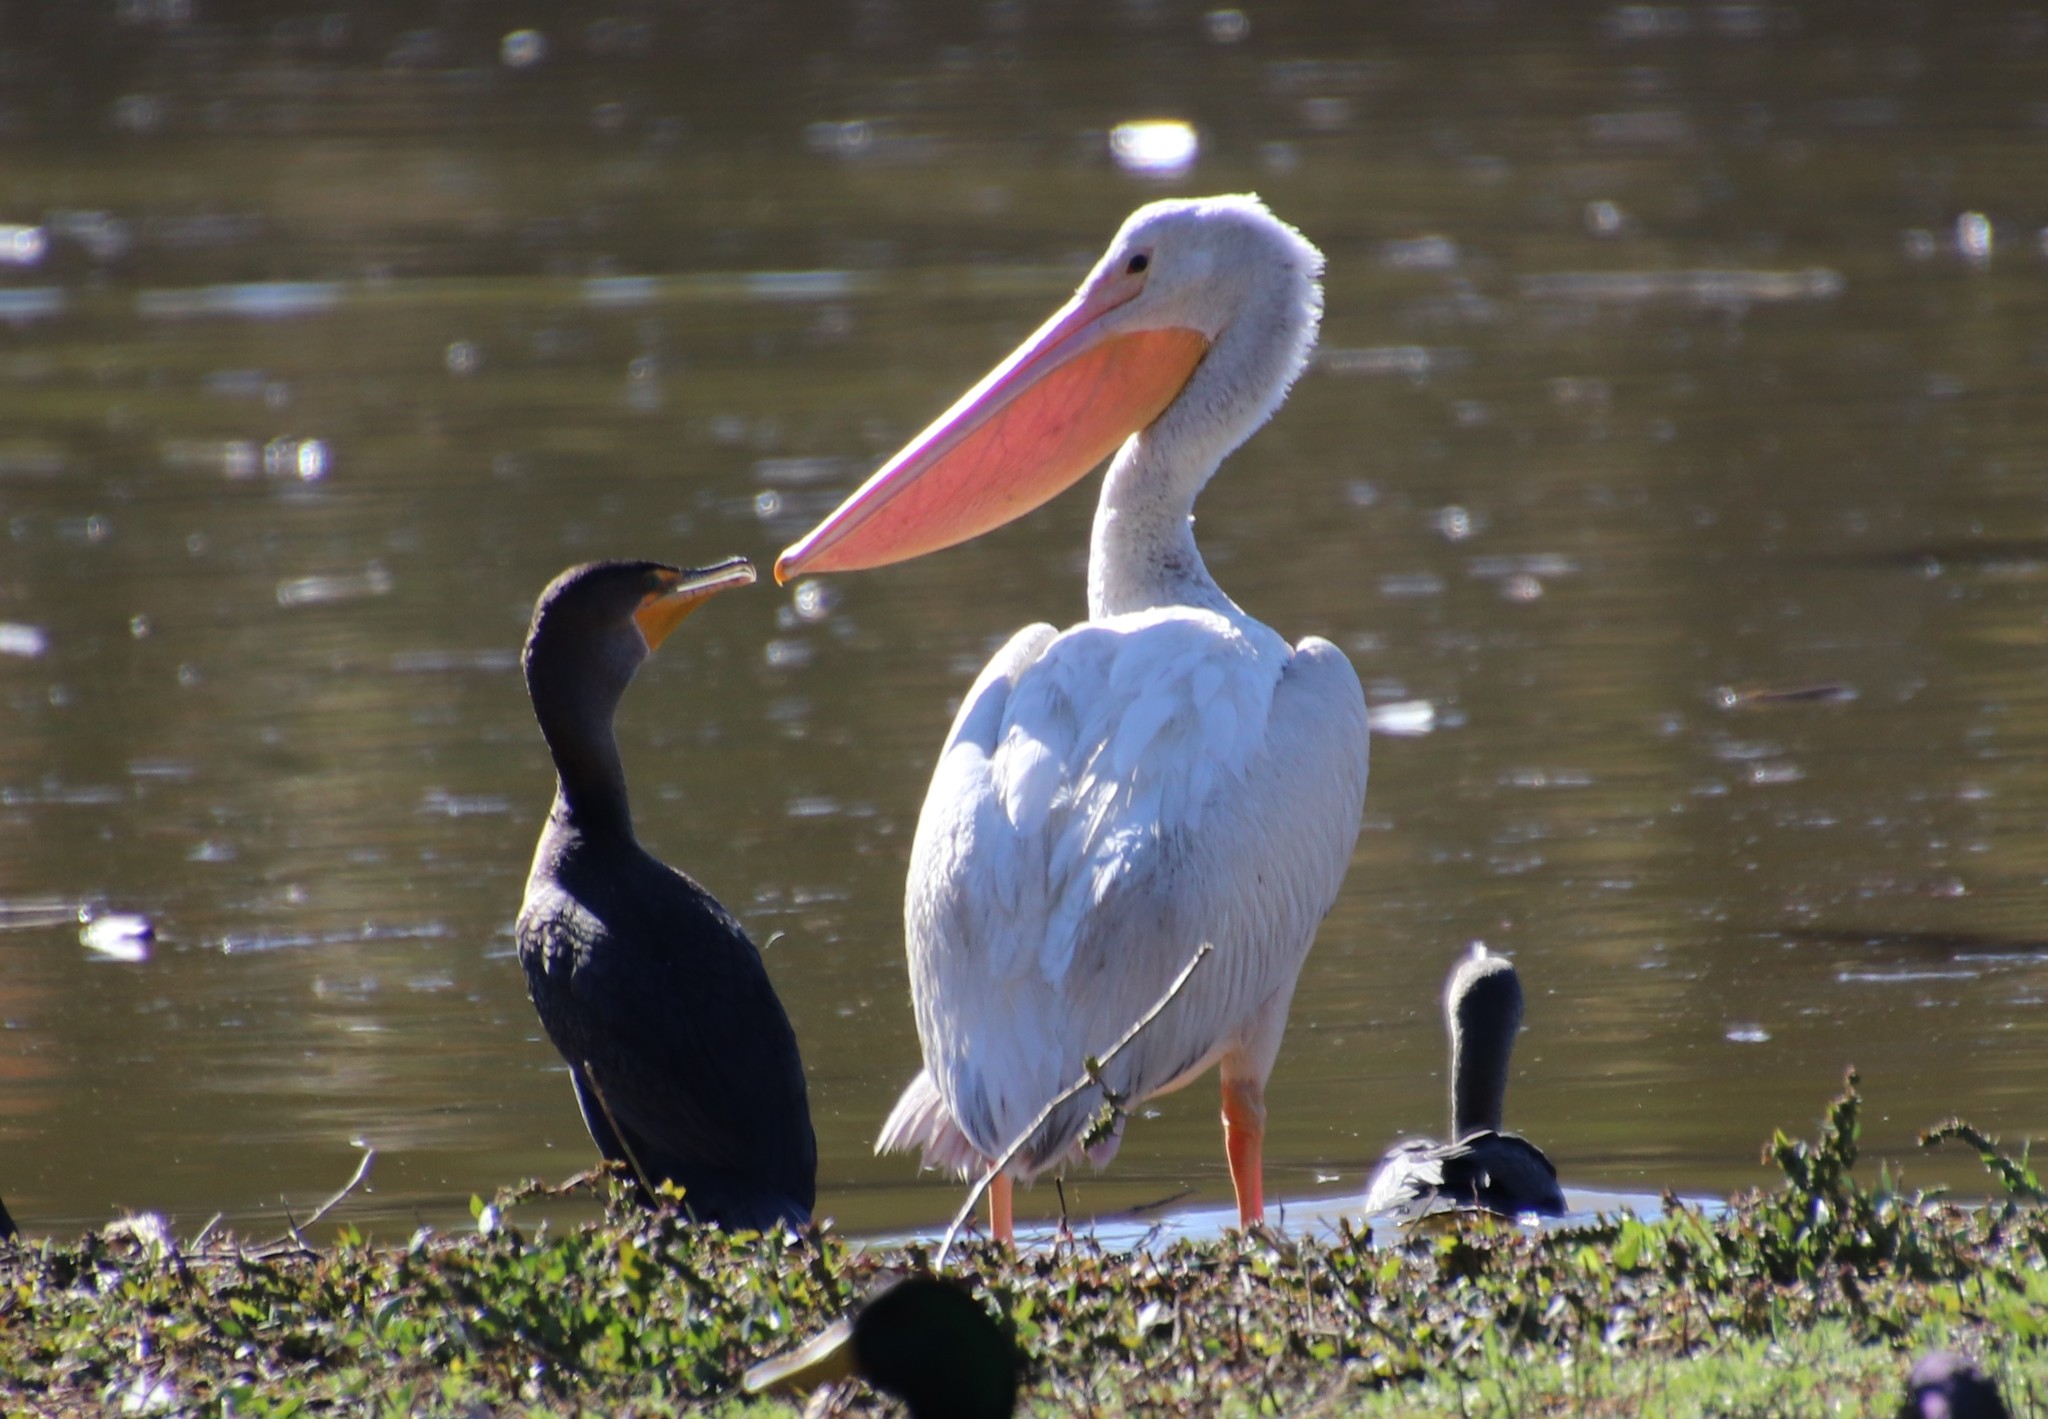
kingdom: Animalia
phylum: Chordata
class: Aves
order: Pelecaniformes
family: Pelecanidae
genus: Pelecanus
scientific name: Pelecanus erythrorhynchos
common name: American white pelican
